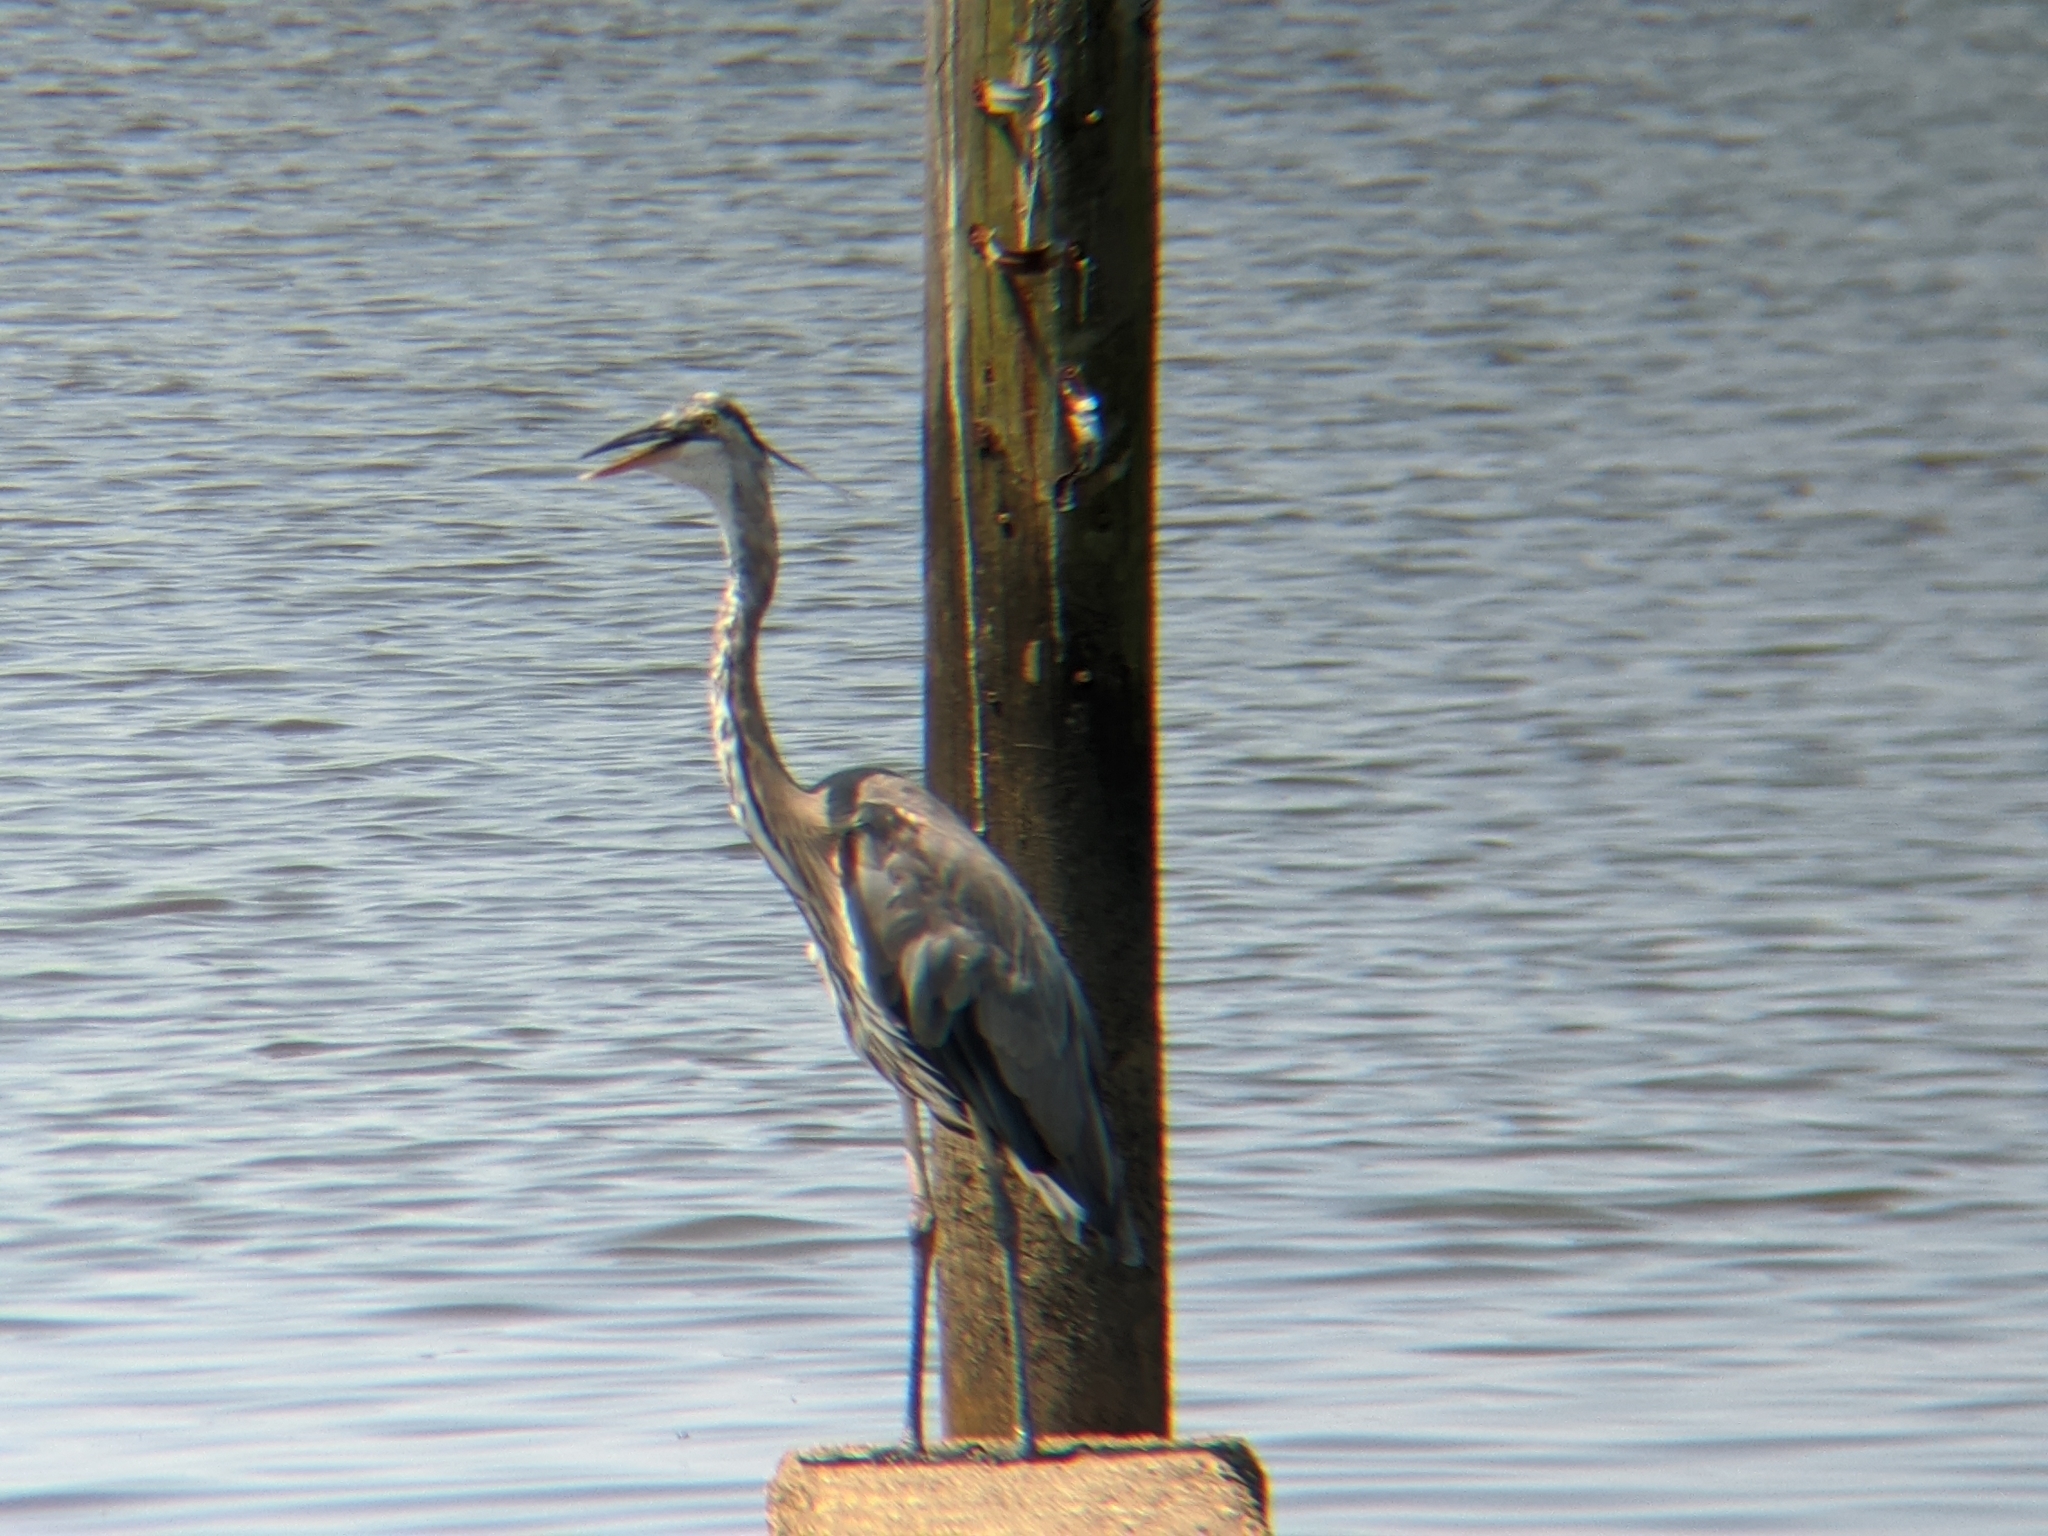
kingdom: Animalia
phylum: Chordata
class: Aves
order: Pelecaniformes
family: Ardeidae
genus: Ardea
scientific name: Ardea herodias
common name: Great blue heron
